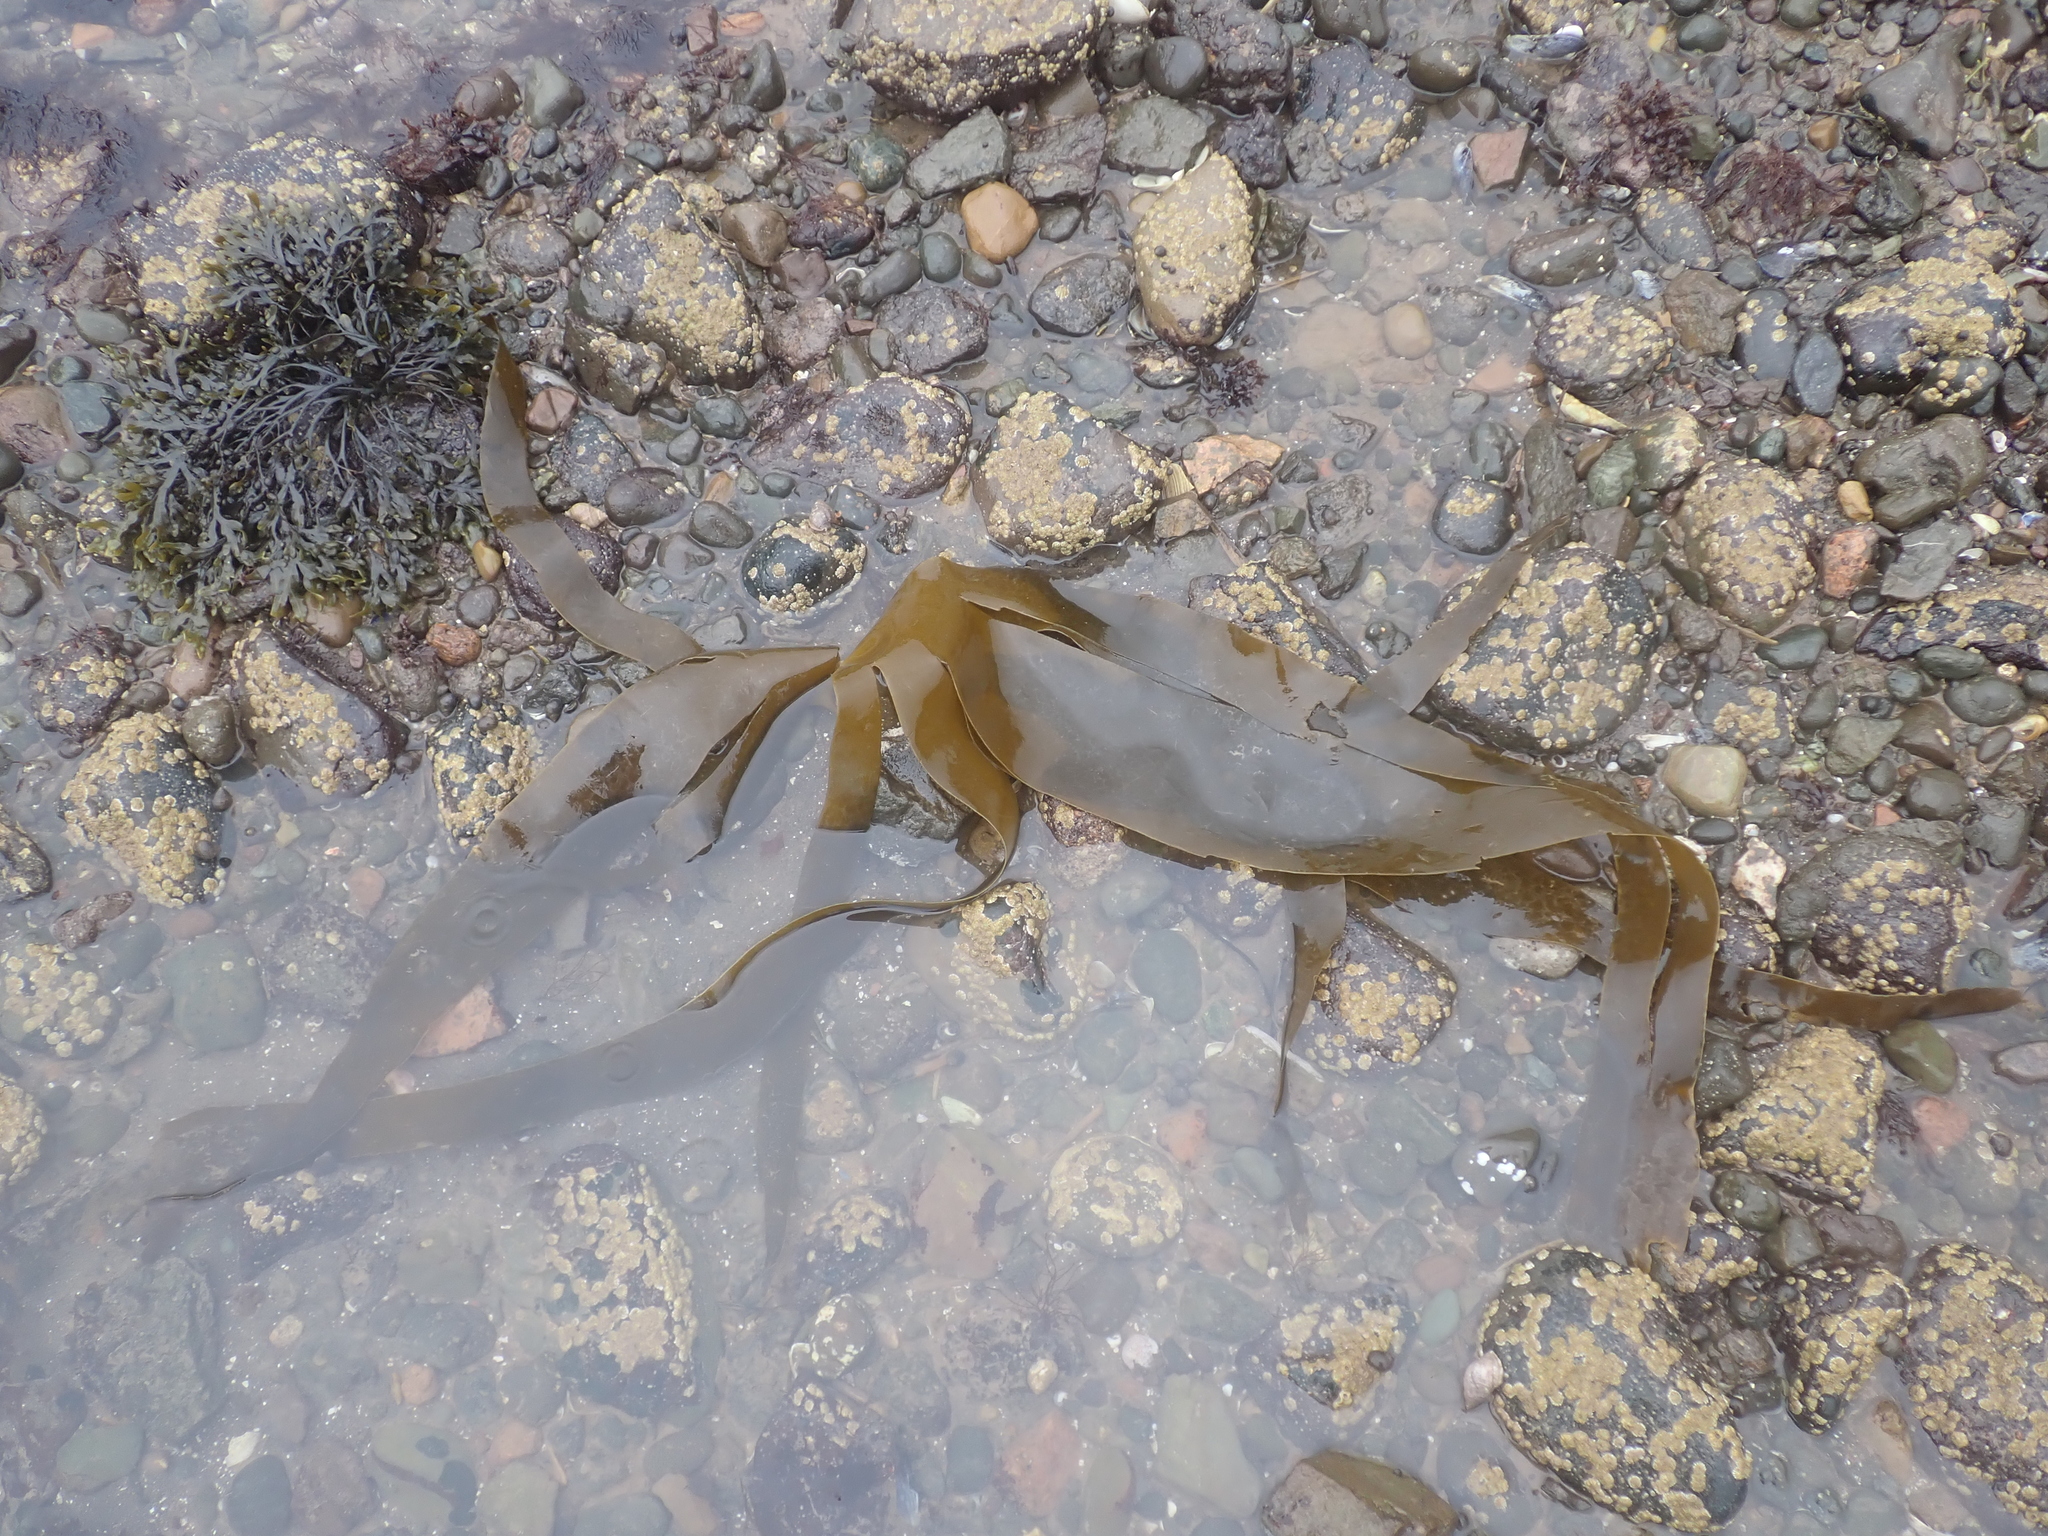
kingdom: Chromista
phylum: Ochrophyta
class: Phaeophyceae
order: Laminariales
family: Laminariaceae
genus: Laminaria
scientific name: Laminaria digitata
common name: Oarweed
